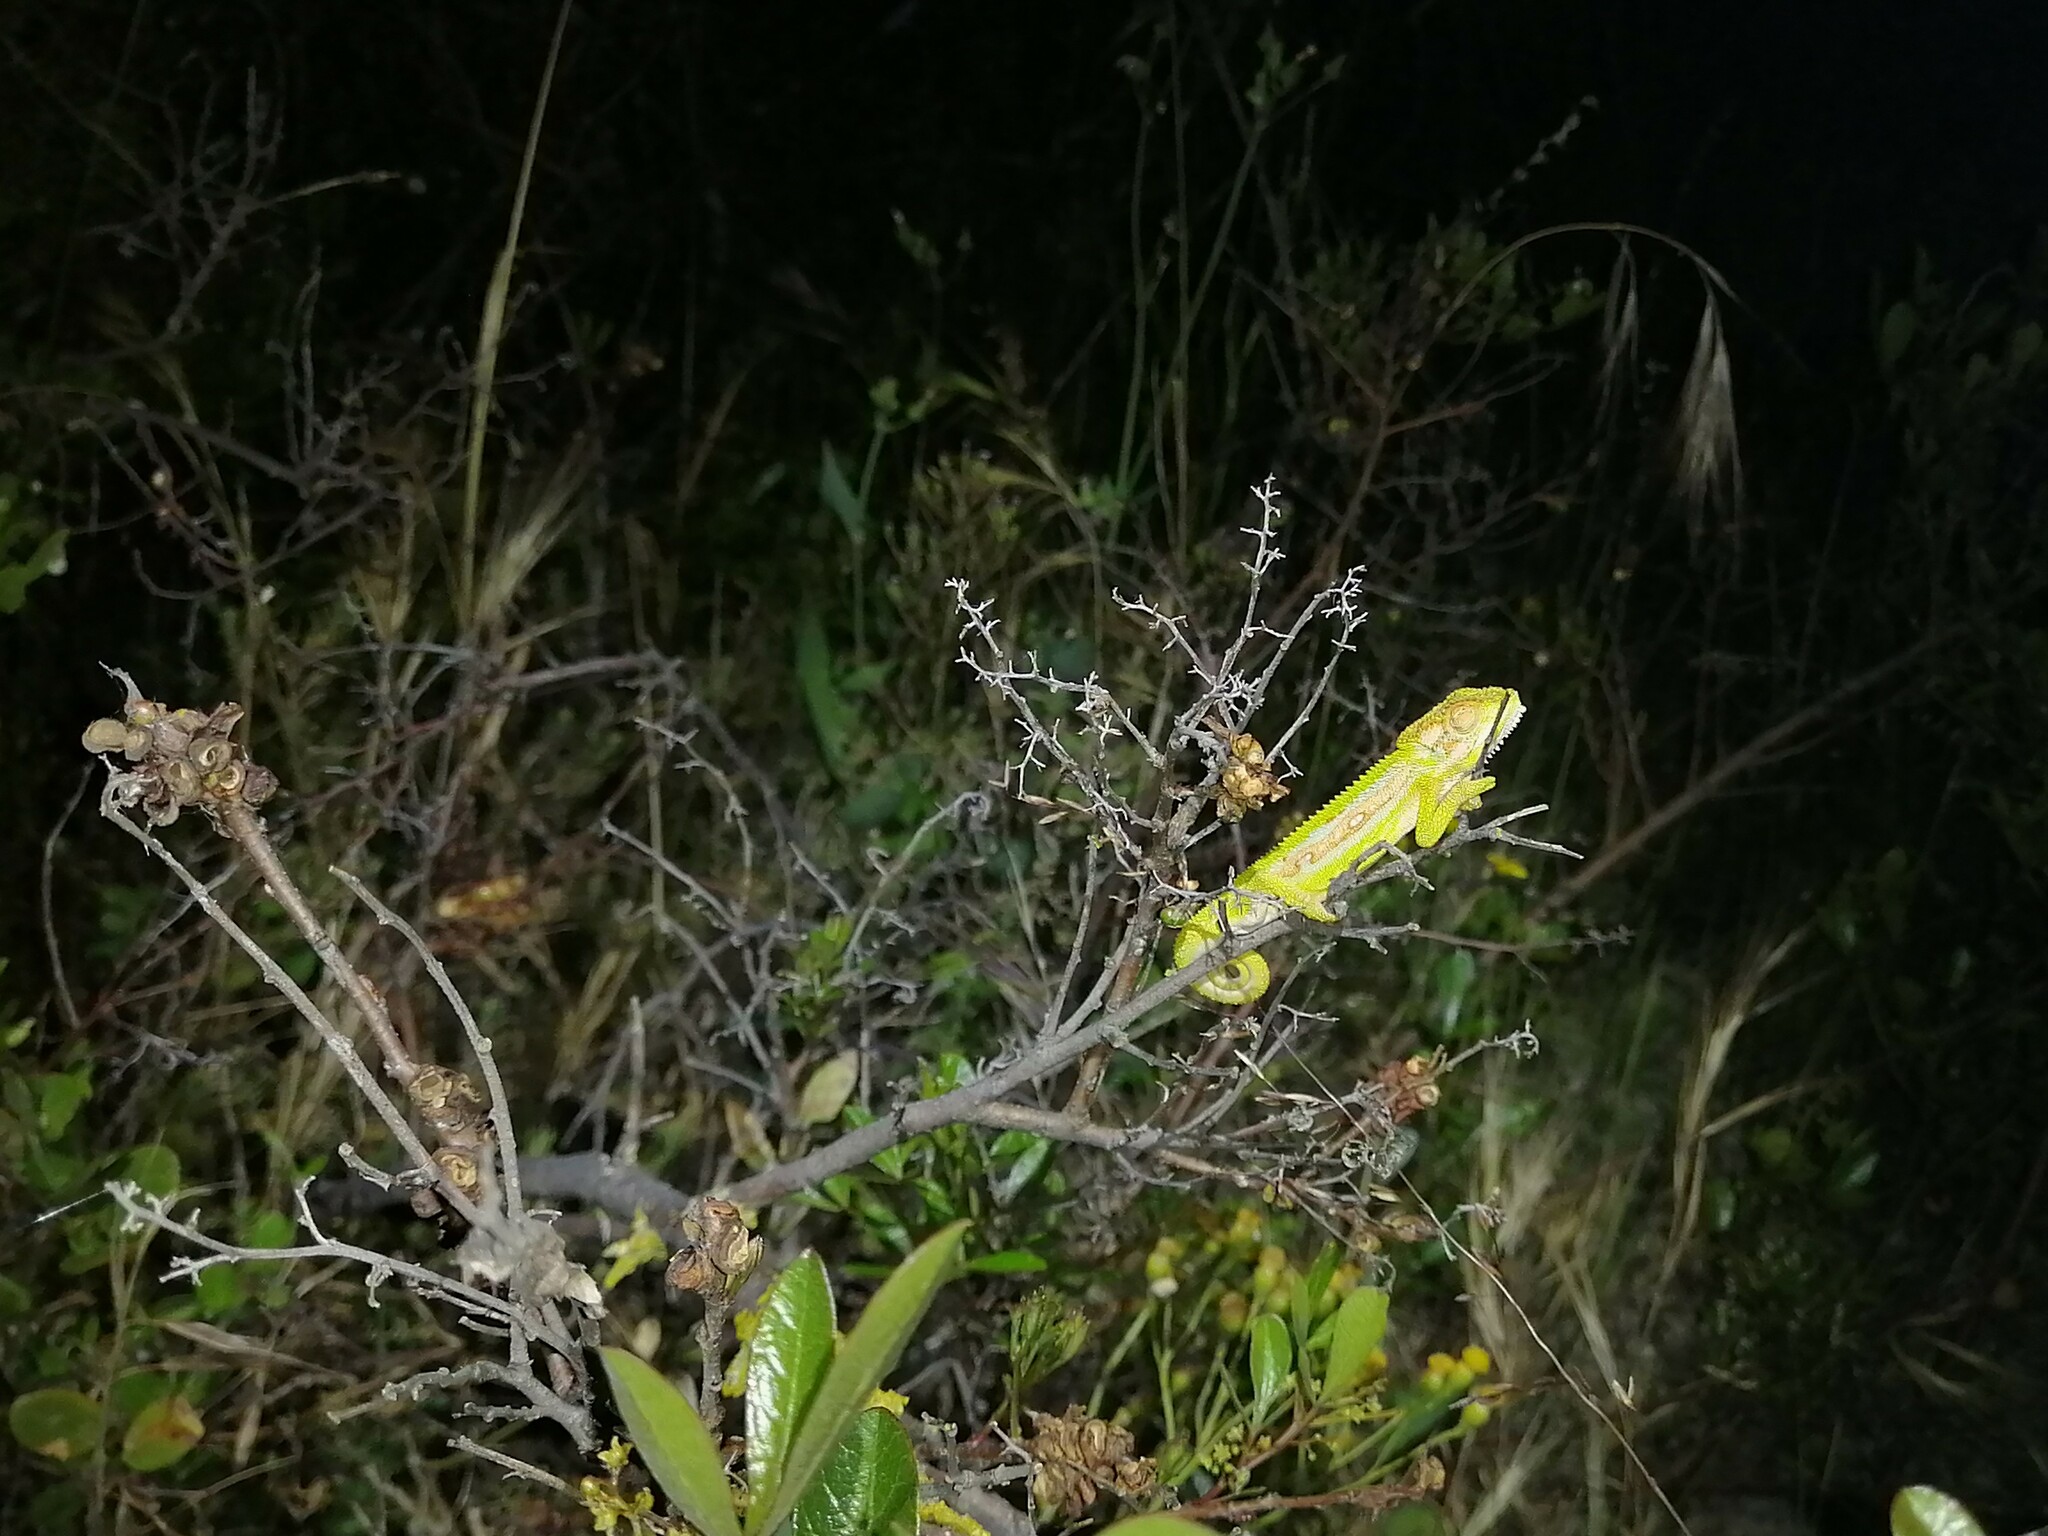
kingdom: Animalia
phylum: Chordata
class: Squamata
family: Chamaeleonidae
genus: Bradypodion
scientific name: Bradypodion pumilum
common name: Cape dwarf chameleon
